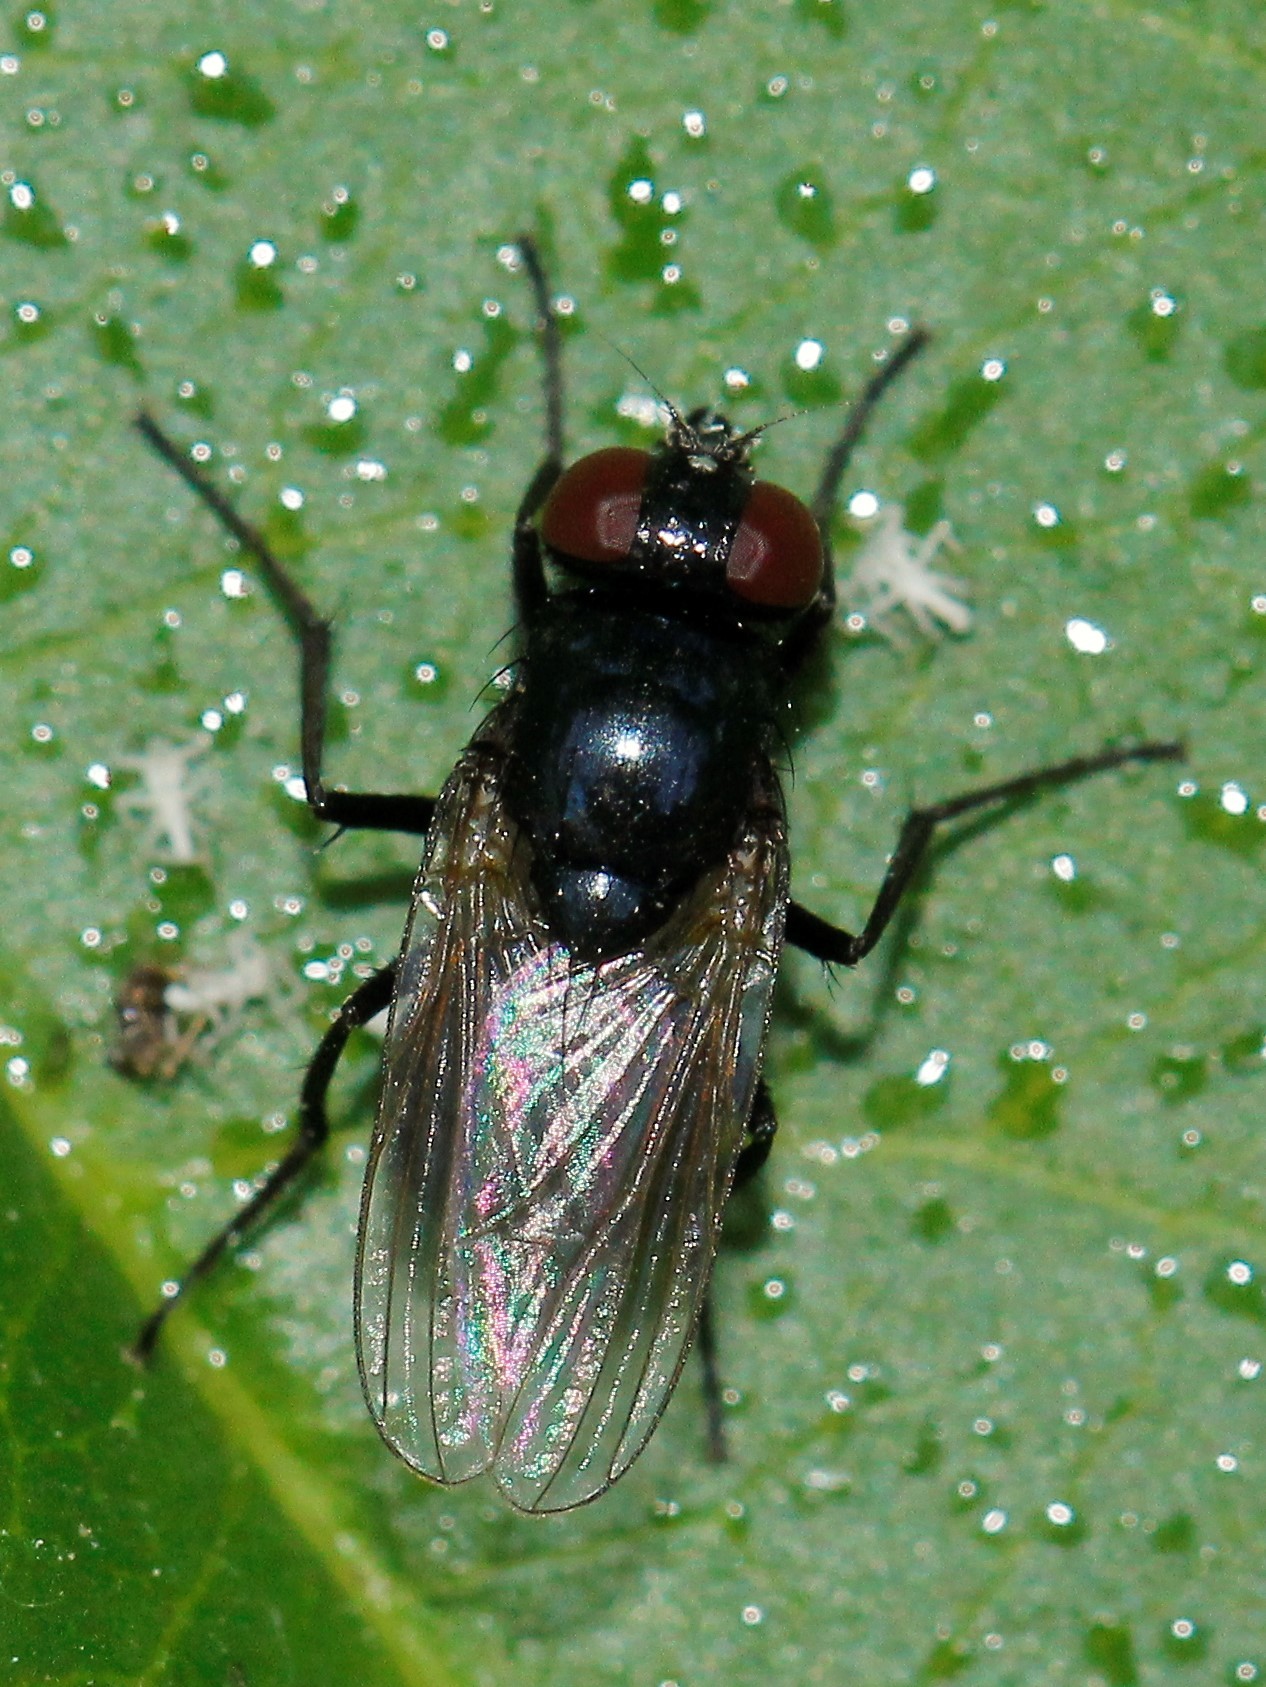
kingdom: Animalia
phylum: Arthropoda
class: Insecta
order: Diptera
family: Muscidae
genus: Hydrotaea
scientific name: Hydrotaea ignava
